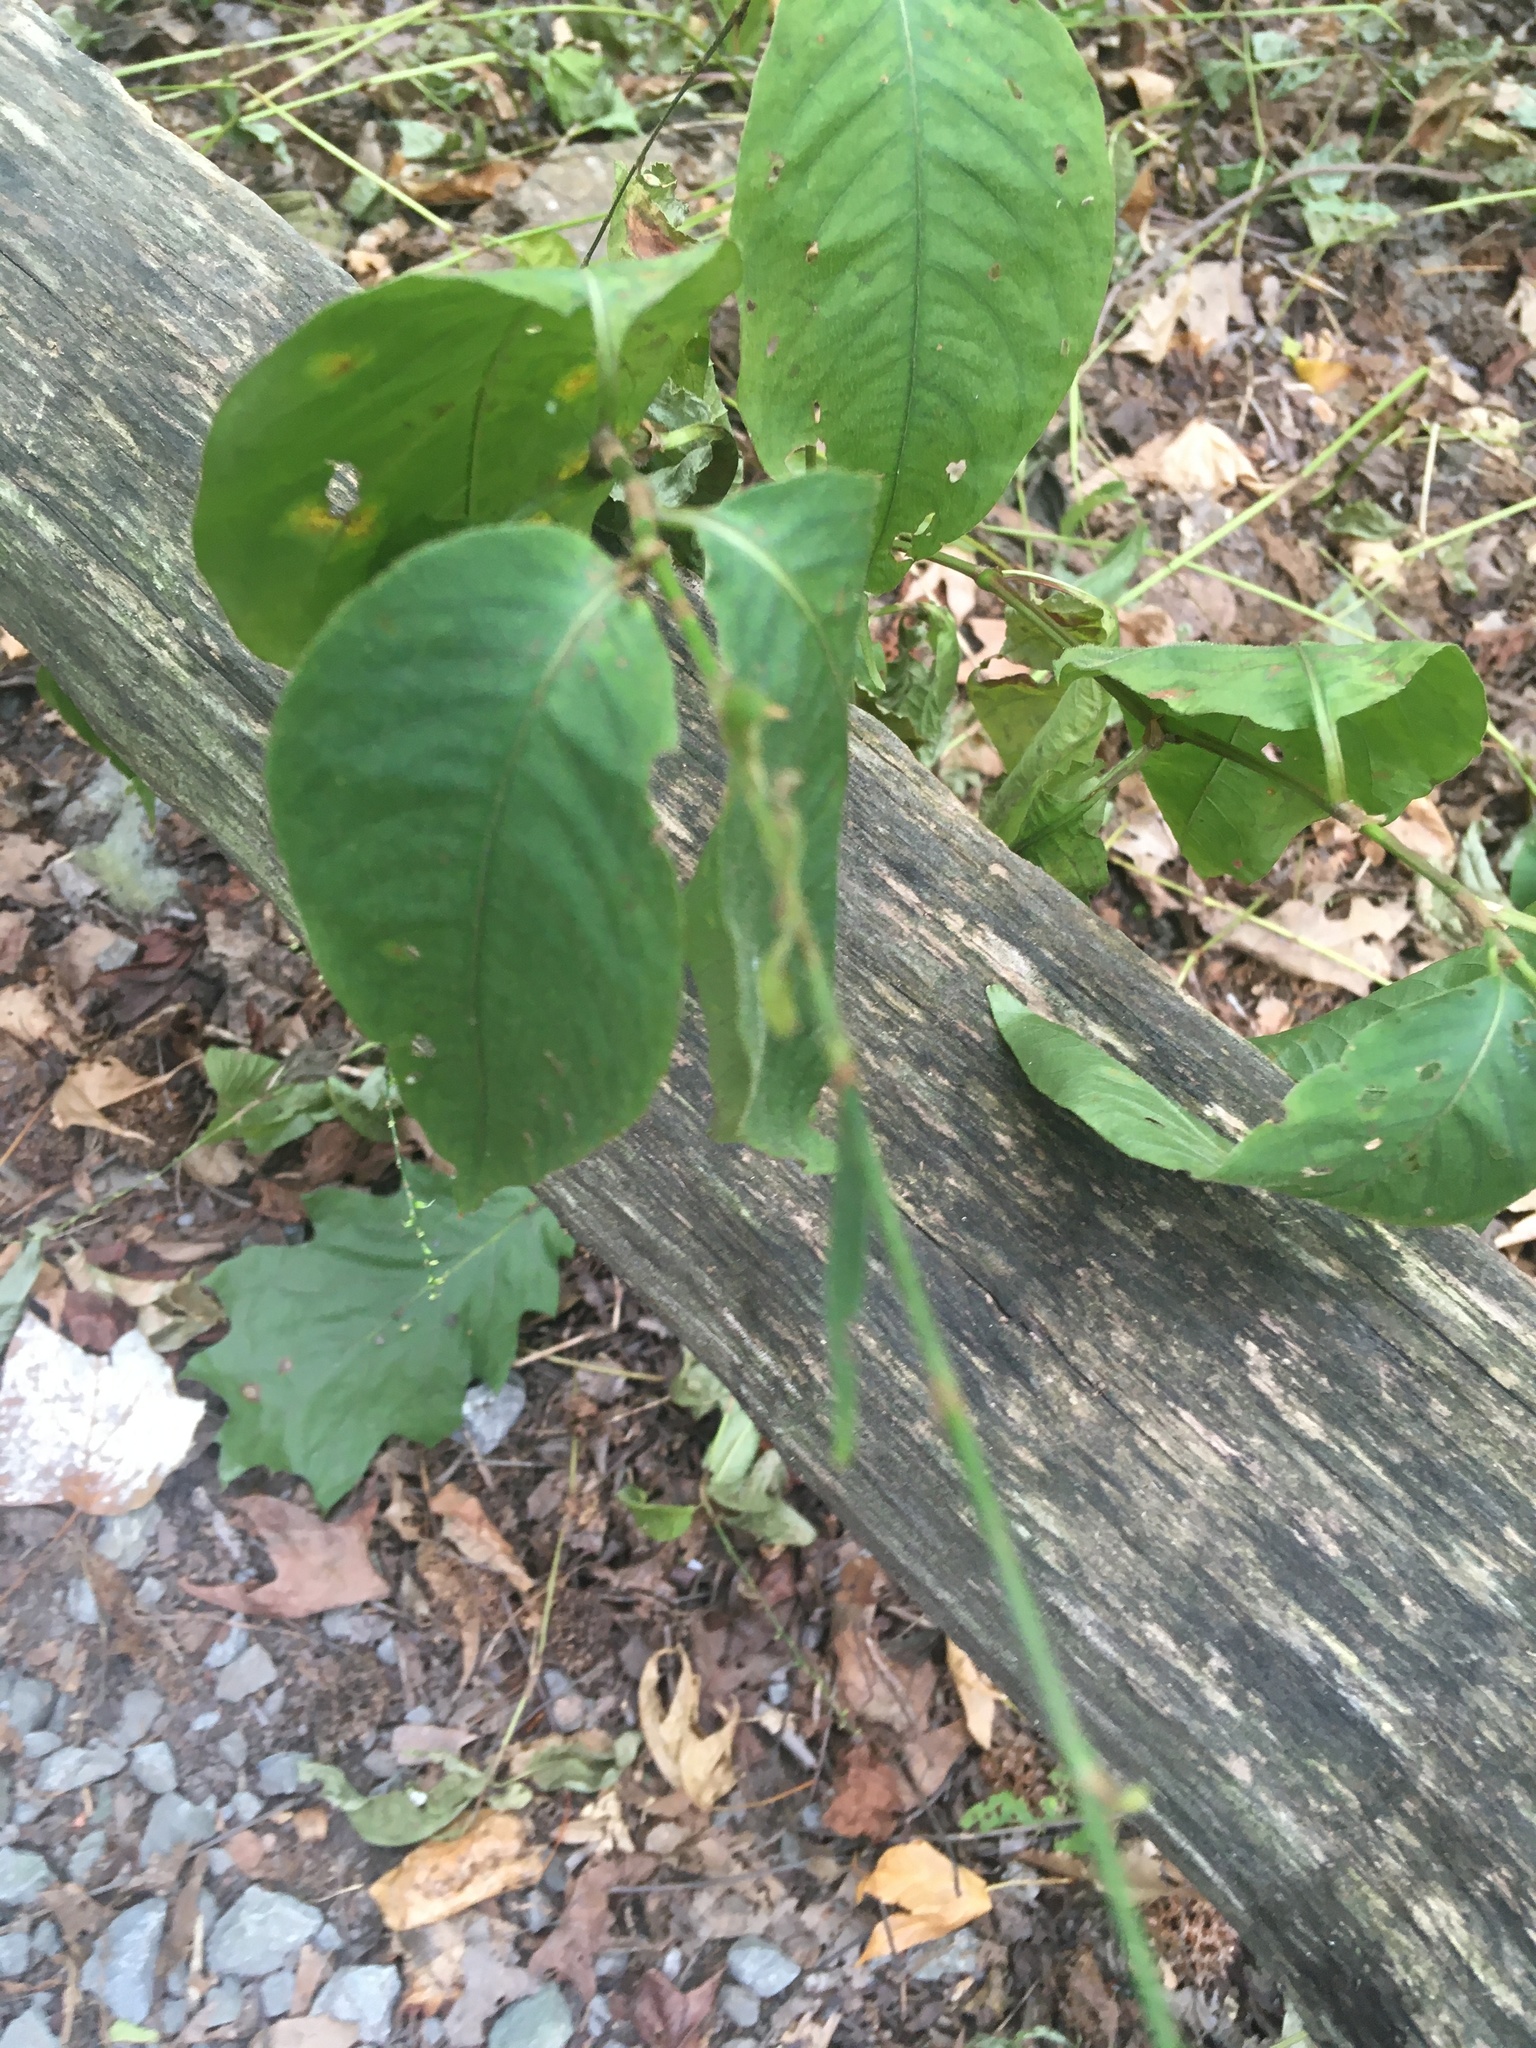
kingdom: Plantae
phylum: Tracheophyta
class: Magnoliopsida
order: Caryophyllales
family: Polygonaceae
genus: Persicaria
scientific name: Persicaria virginiana
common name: Jumpseed
